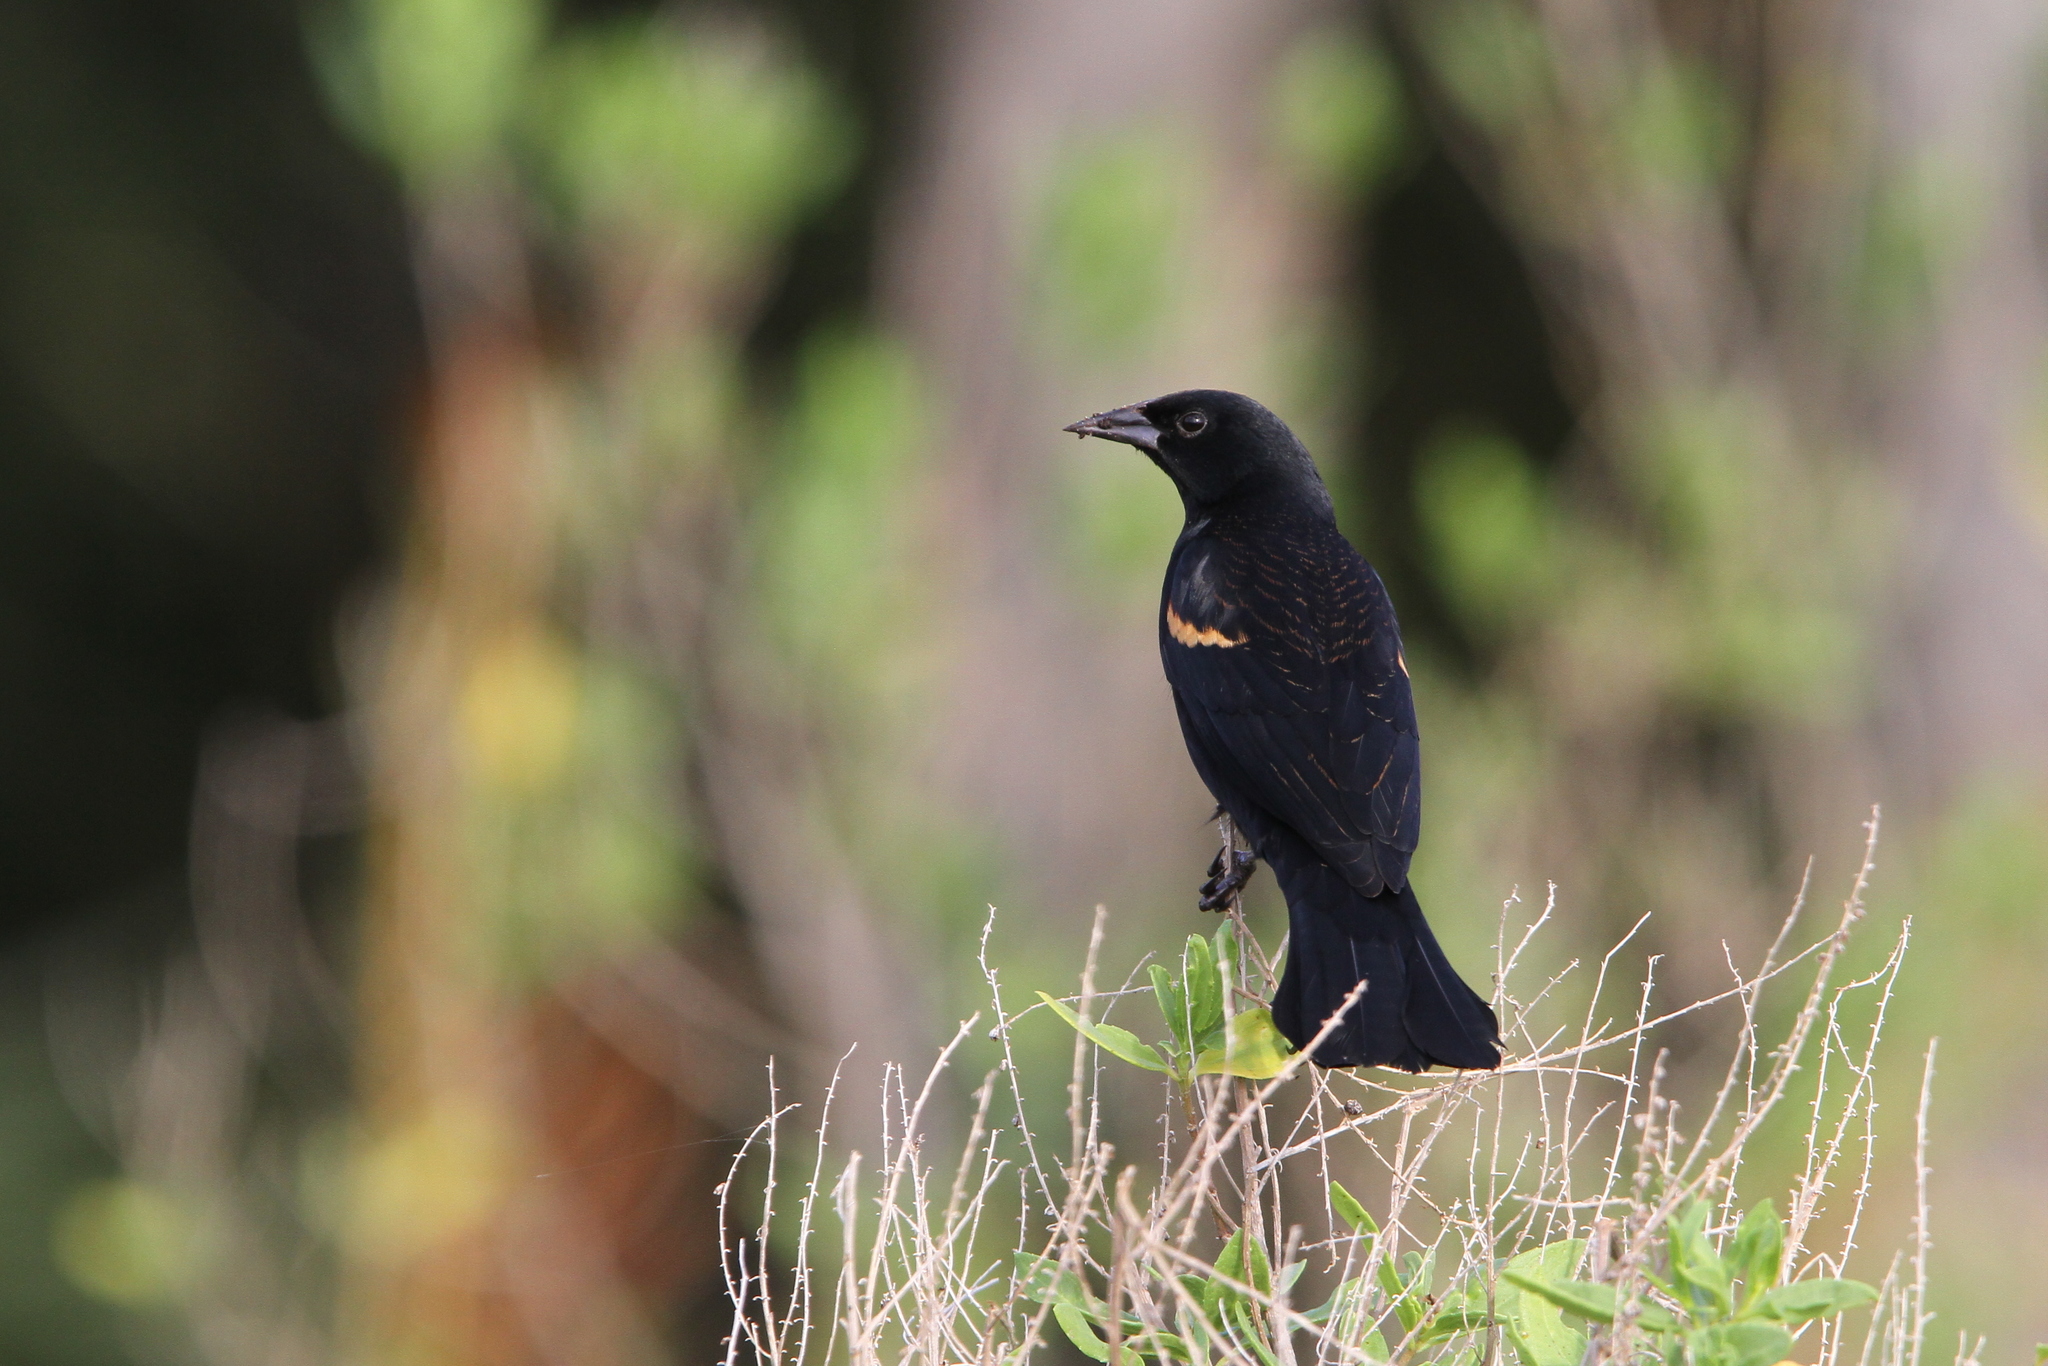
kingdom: Animalia
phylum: Chordata
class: Aves
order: Passeriformes
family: Icteridae
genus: Agelaius
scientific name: Agelaius phoeniceus
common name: Red-winged blackbird
